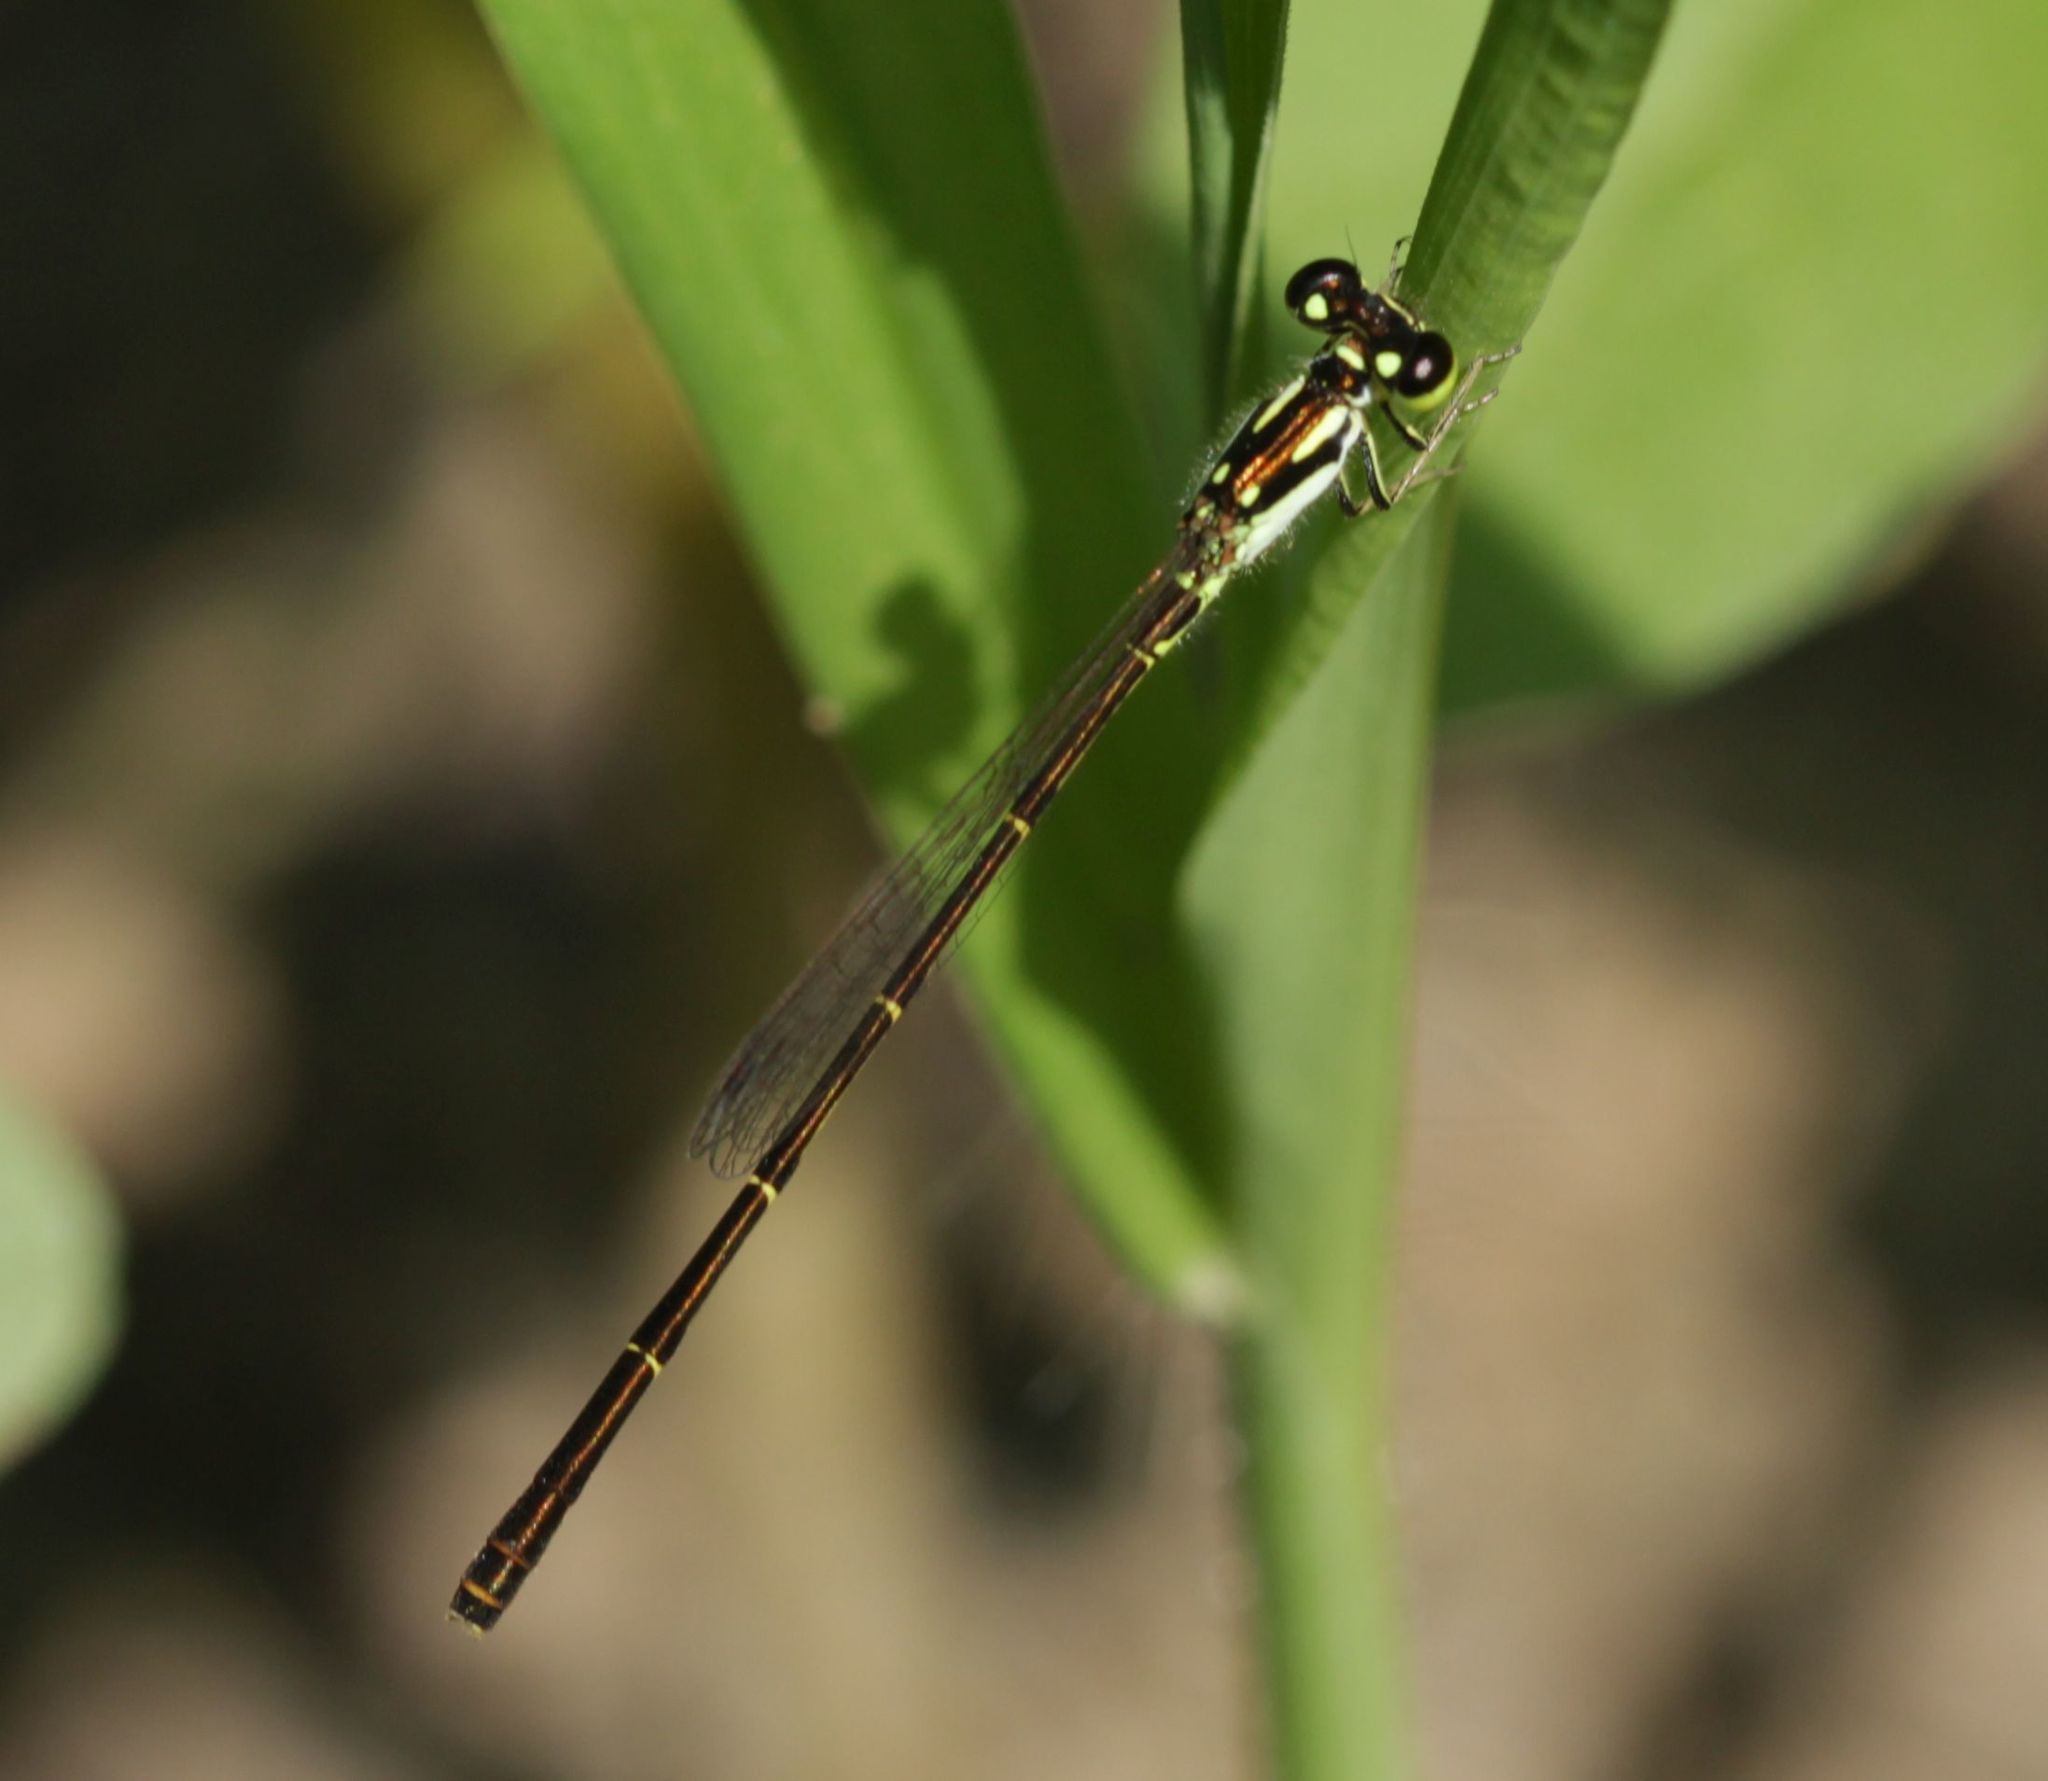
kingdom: Animalia
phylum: Arthropoda
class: Insecta
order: Odonata
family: Coenagrionidae
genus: Ischnura
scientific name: Ischnura posita
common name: Fragile forktail
